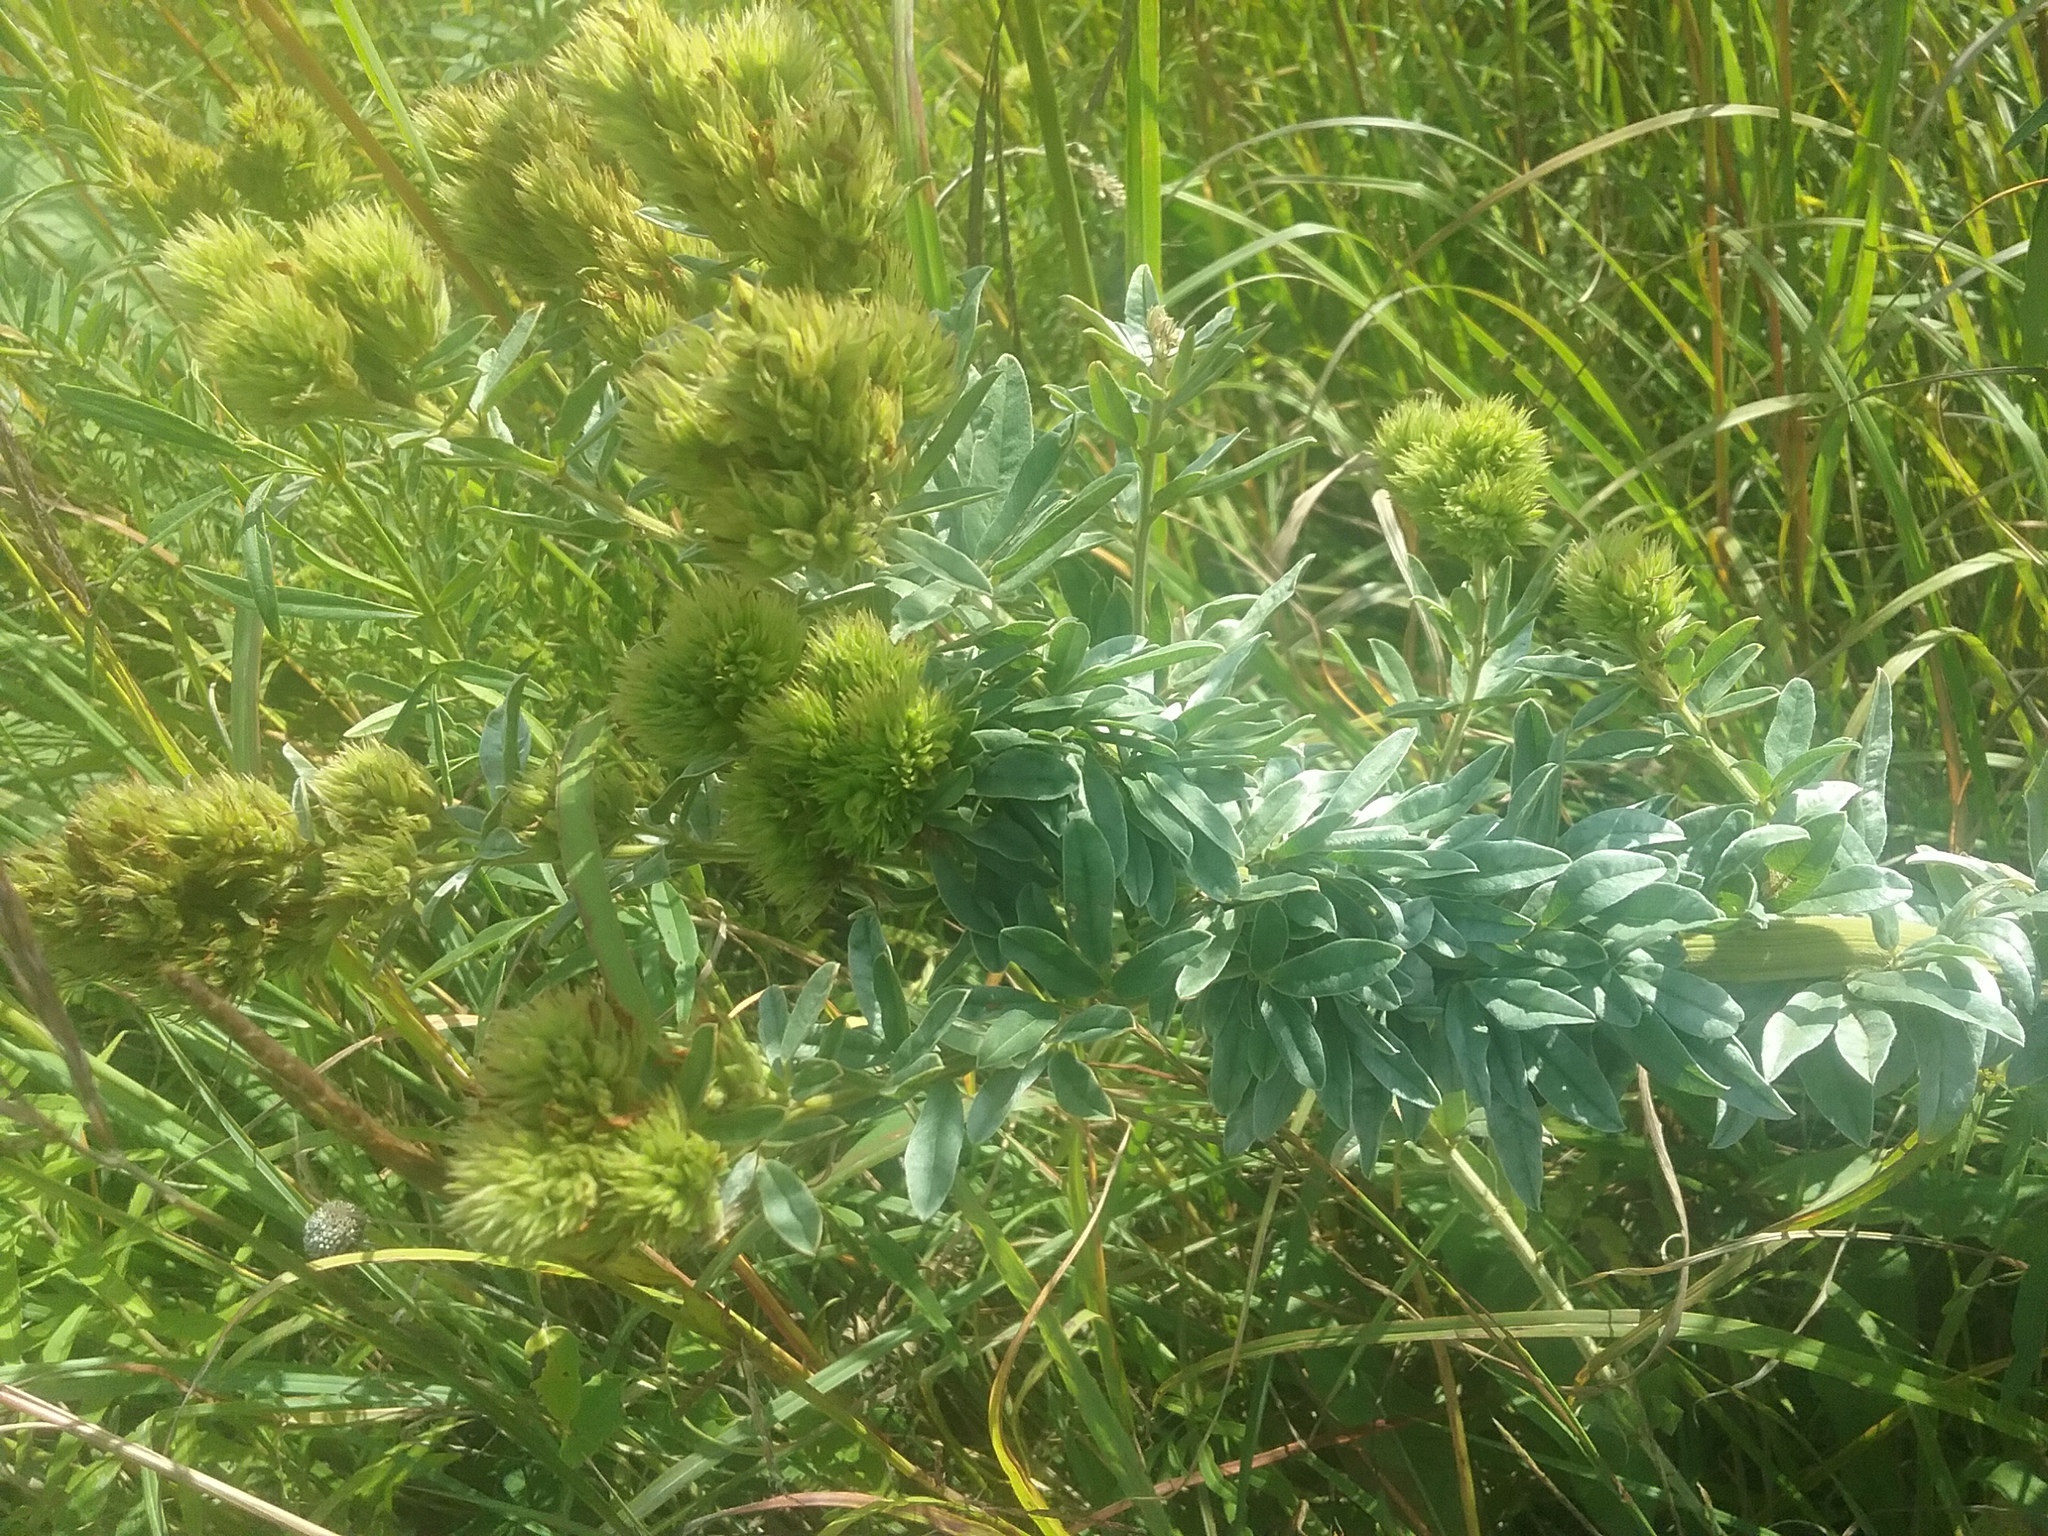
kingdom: Plantae
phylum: Tracheophyta
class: Magnoliopsida
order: Fabales
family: Fabaceae
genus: Lespedeza
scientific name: Lespedeza capitata
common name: Dusty clover
